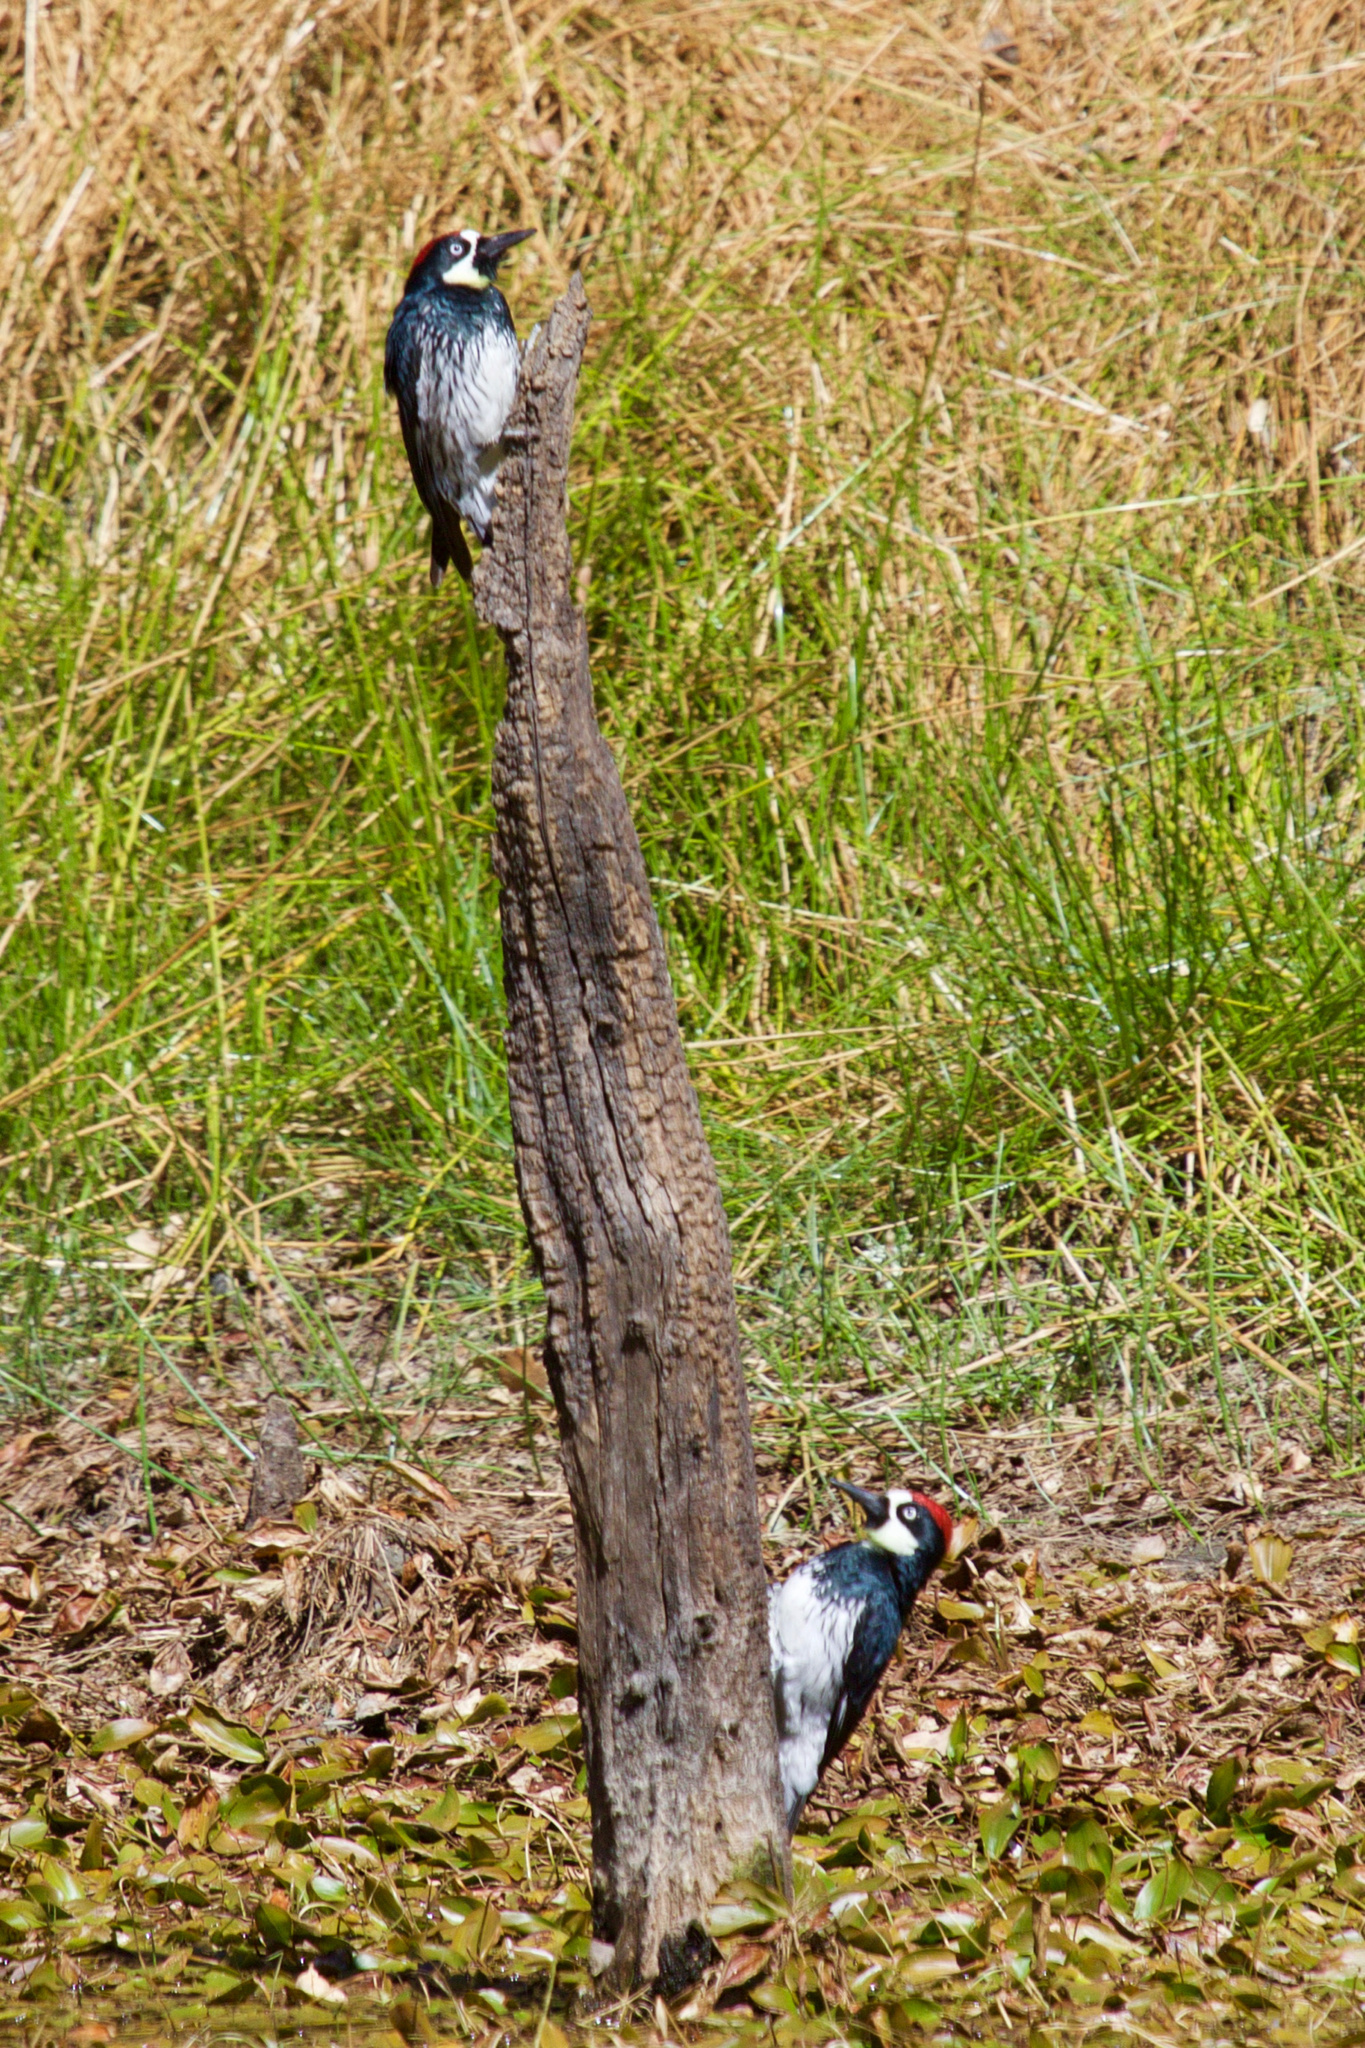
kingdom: Animalia
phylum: Chordata
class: Aves
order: Piciformes
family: Picidae
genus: Melanerpes
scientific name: Melanerpes formicivorus
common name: Acorn woodpecker
